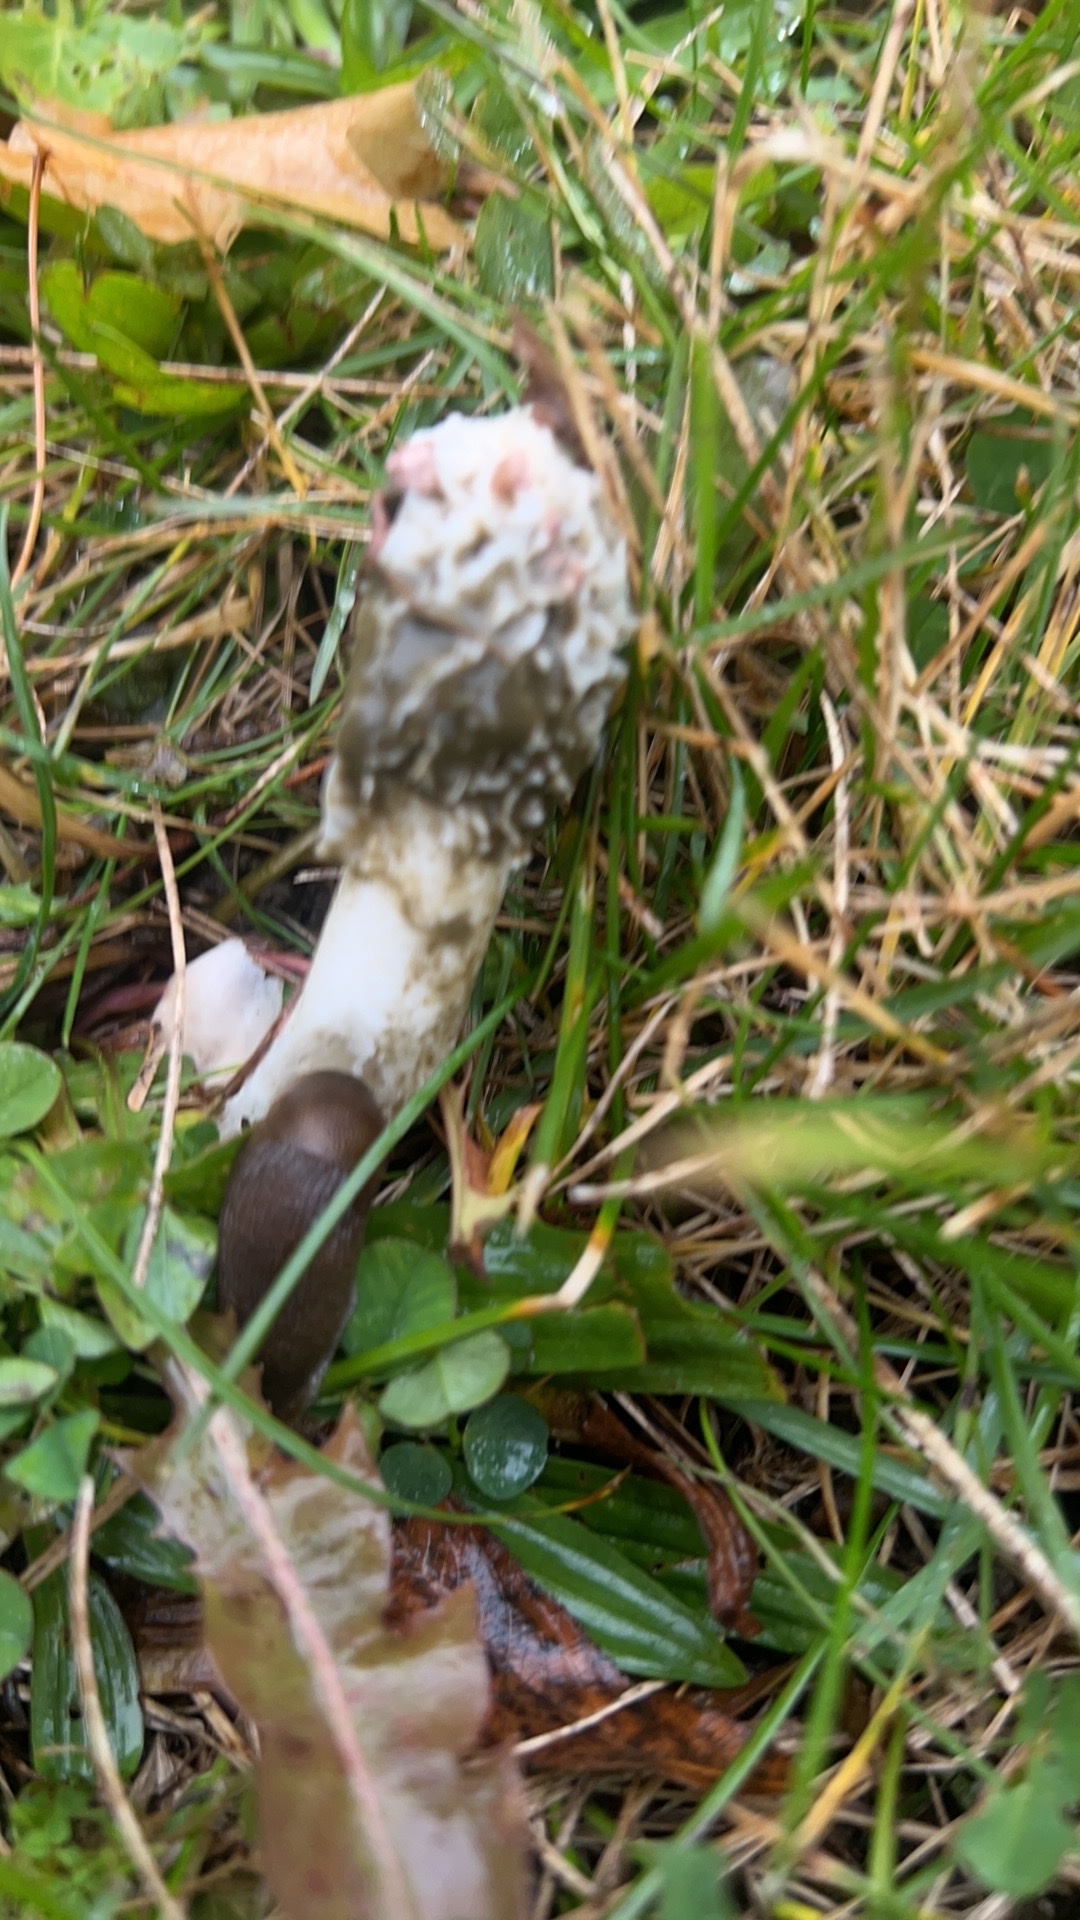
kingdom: Fungi
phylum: Basidiomycota
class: Agaricomycetes
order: Phallales
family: Phallaceae
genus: Phallus
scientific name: Phallus impudicus
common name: Common stinkhorn
